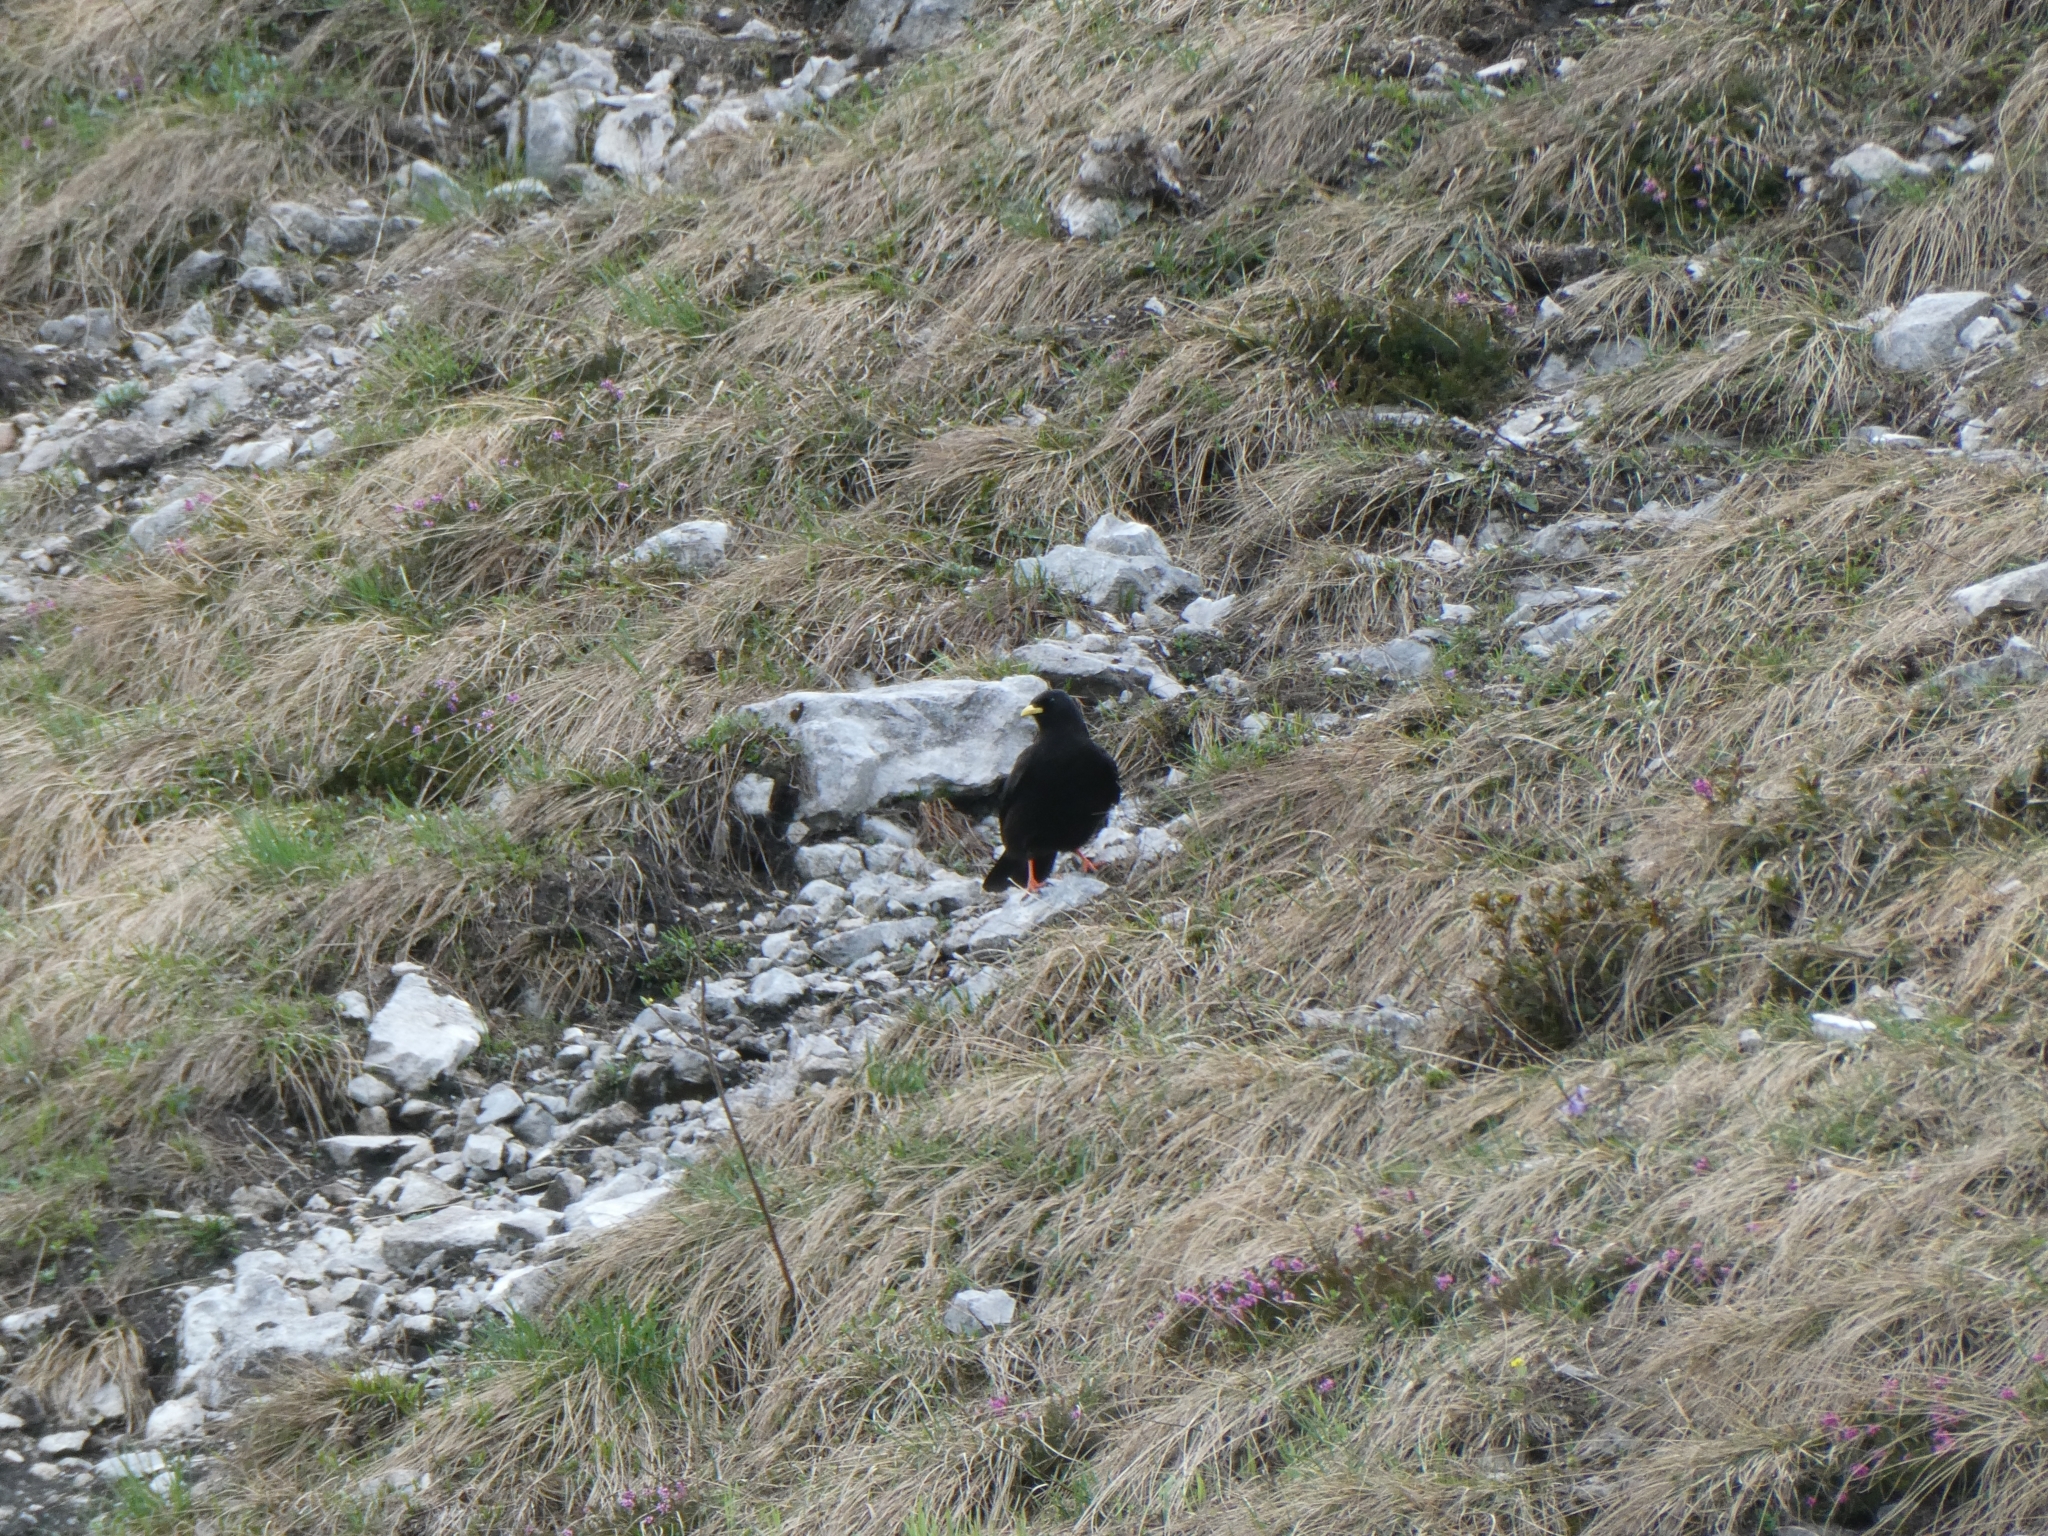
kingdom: Animalia
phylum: Chordata
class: Aves
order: Passeriformes
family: Corvidae
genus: Pyrrhocorax
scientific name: Pyrrhocorax graculus
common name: Alpine chough
